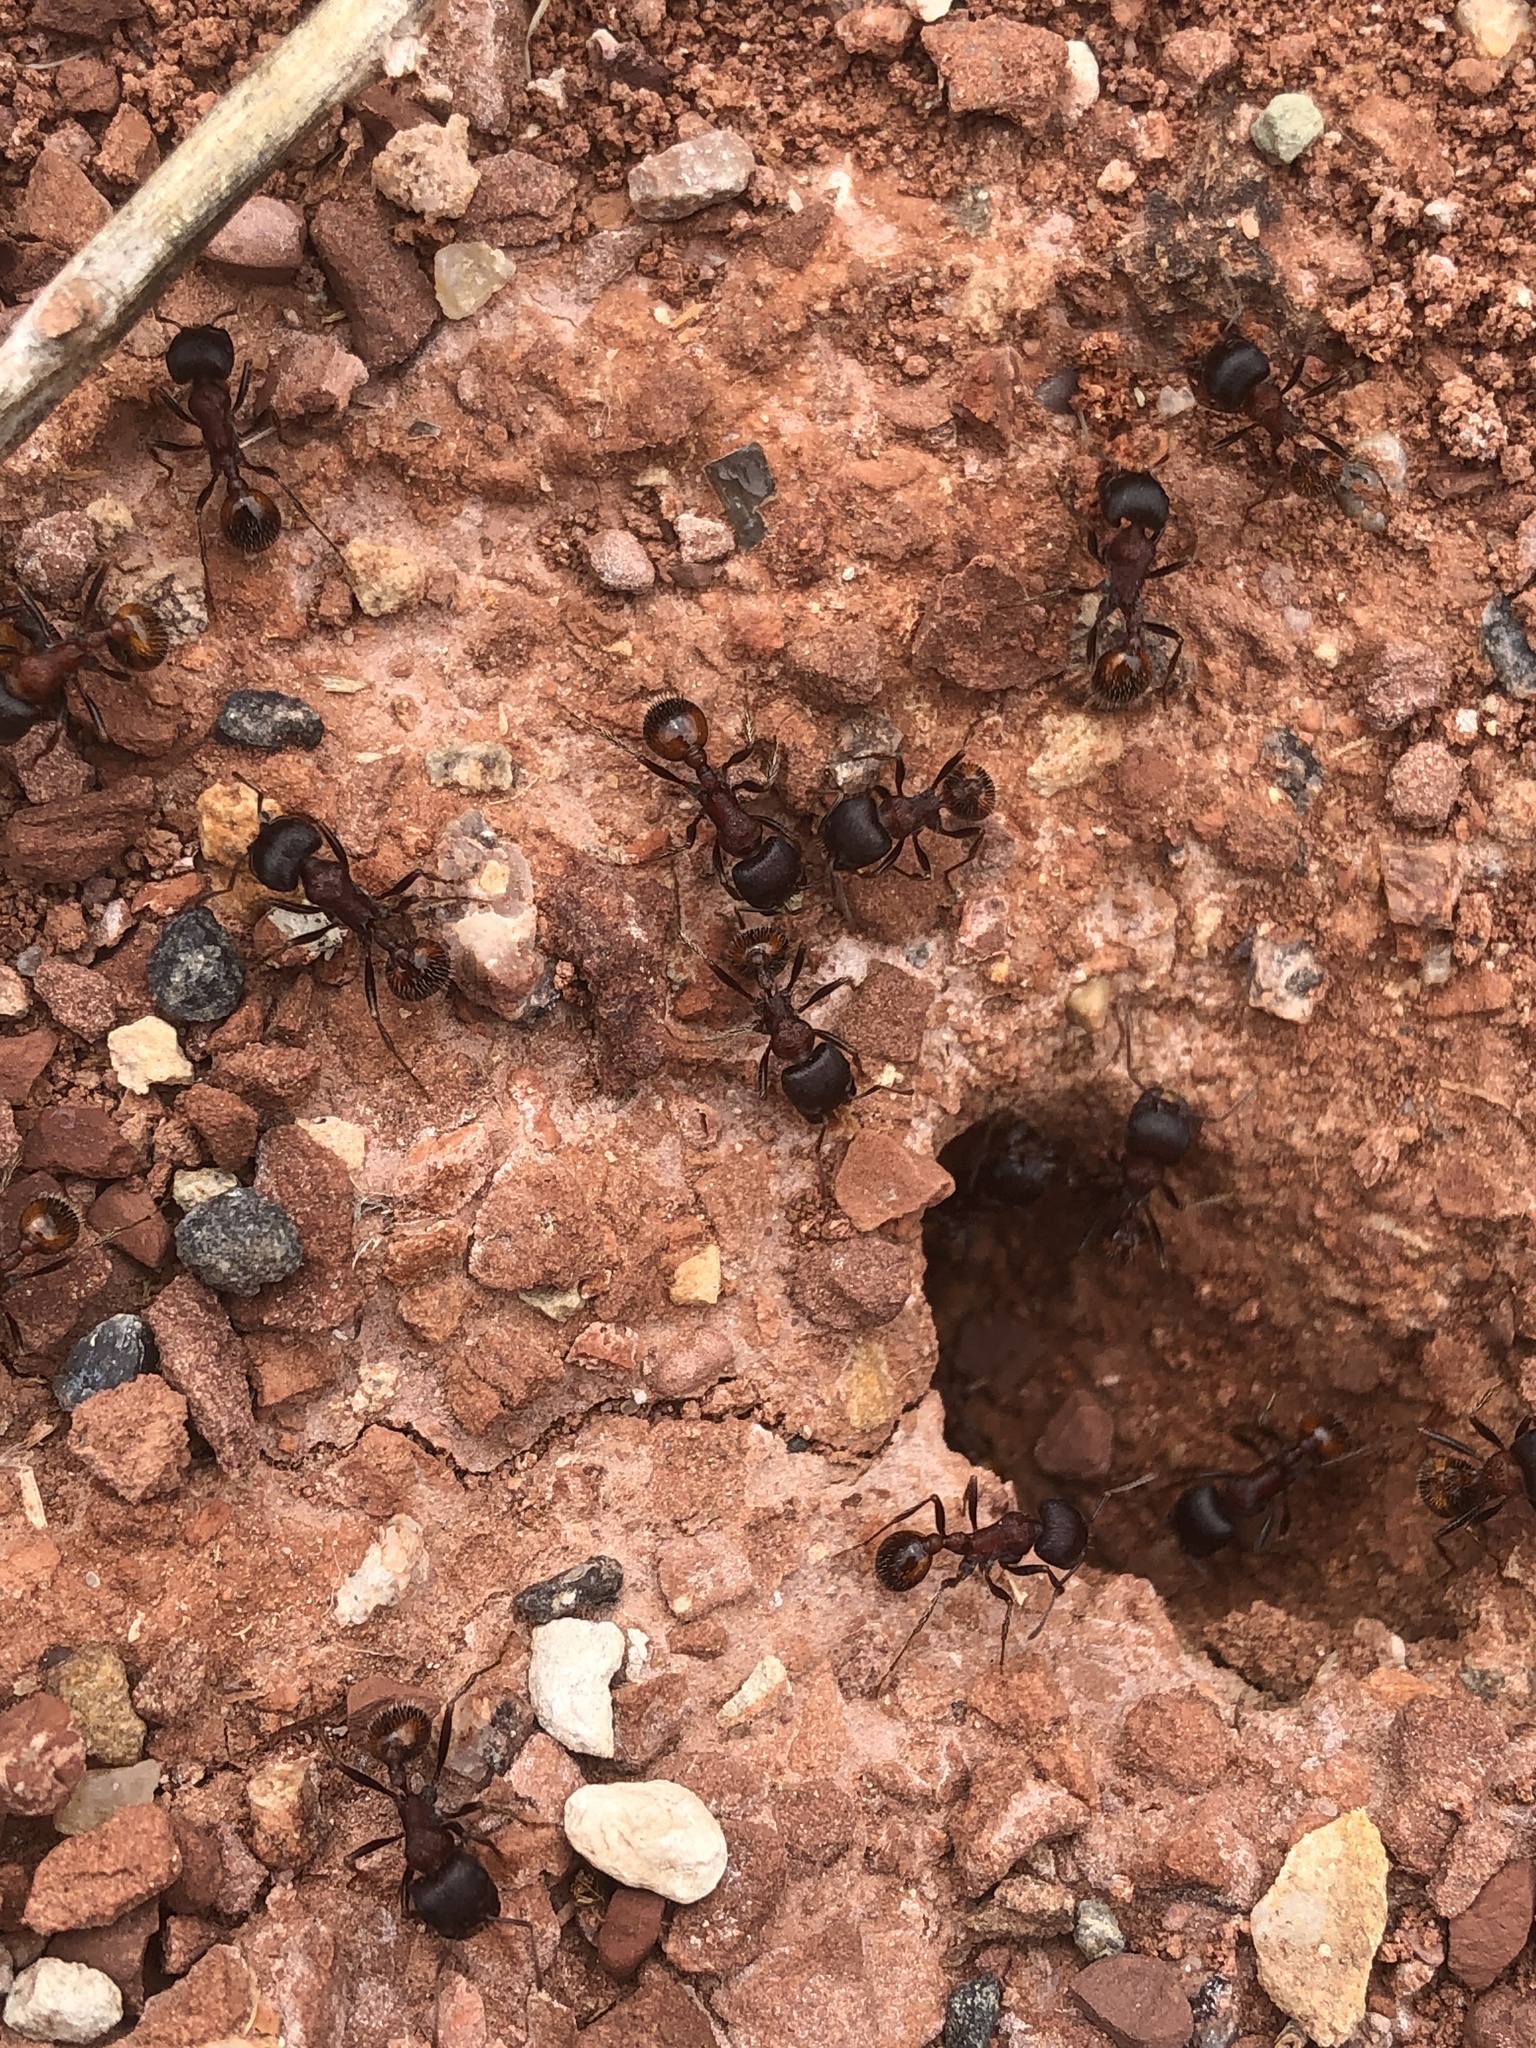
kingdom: Animalia
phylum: Arthropoda
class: Insecta
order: Hymenoptera
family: Formicidae
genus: Pogonomyrmex
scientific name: Pogonomyrmex rugosus
